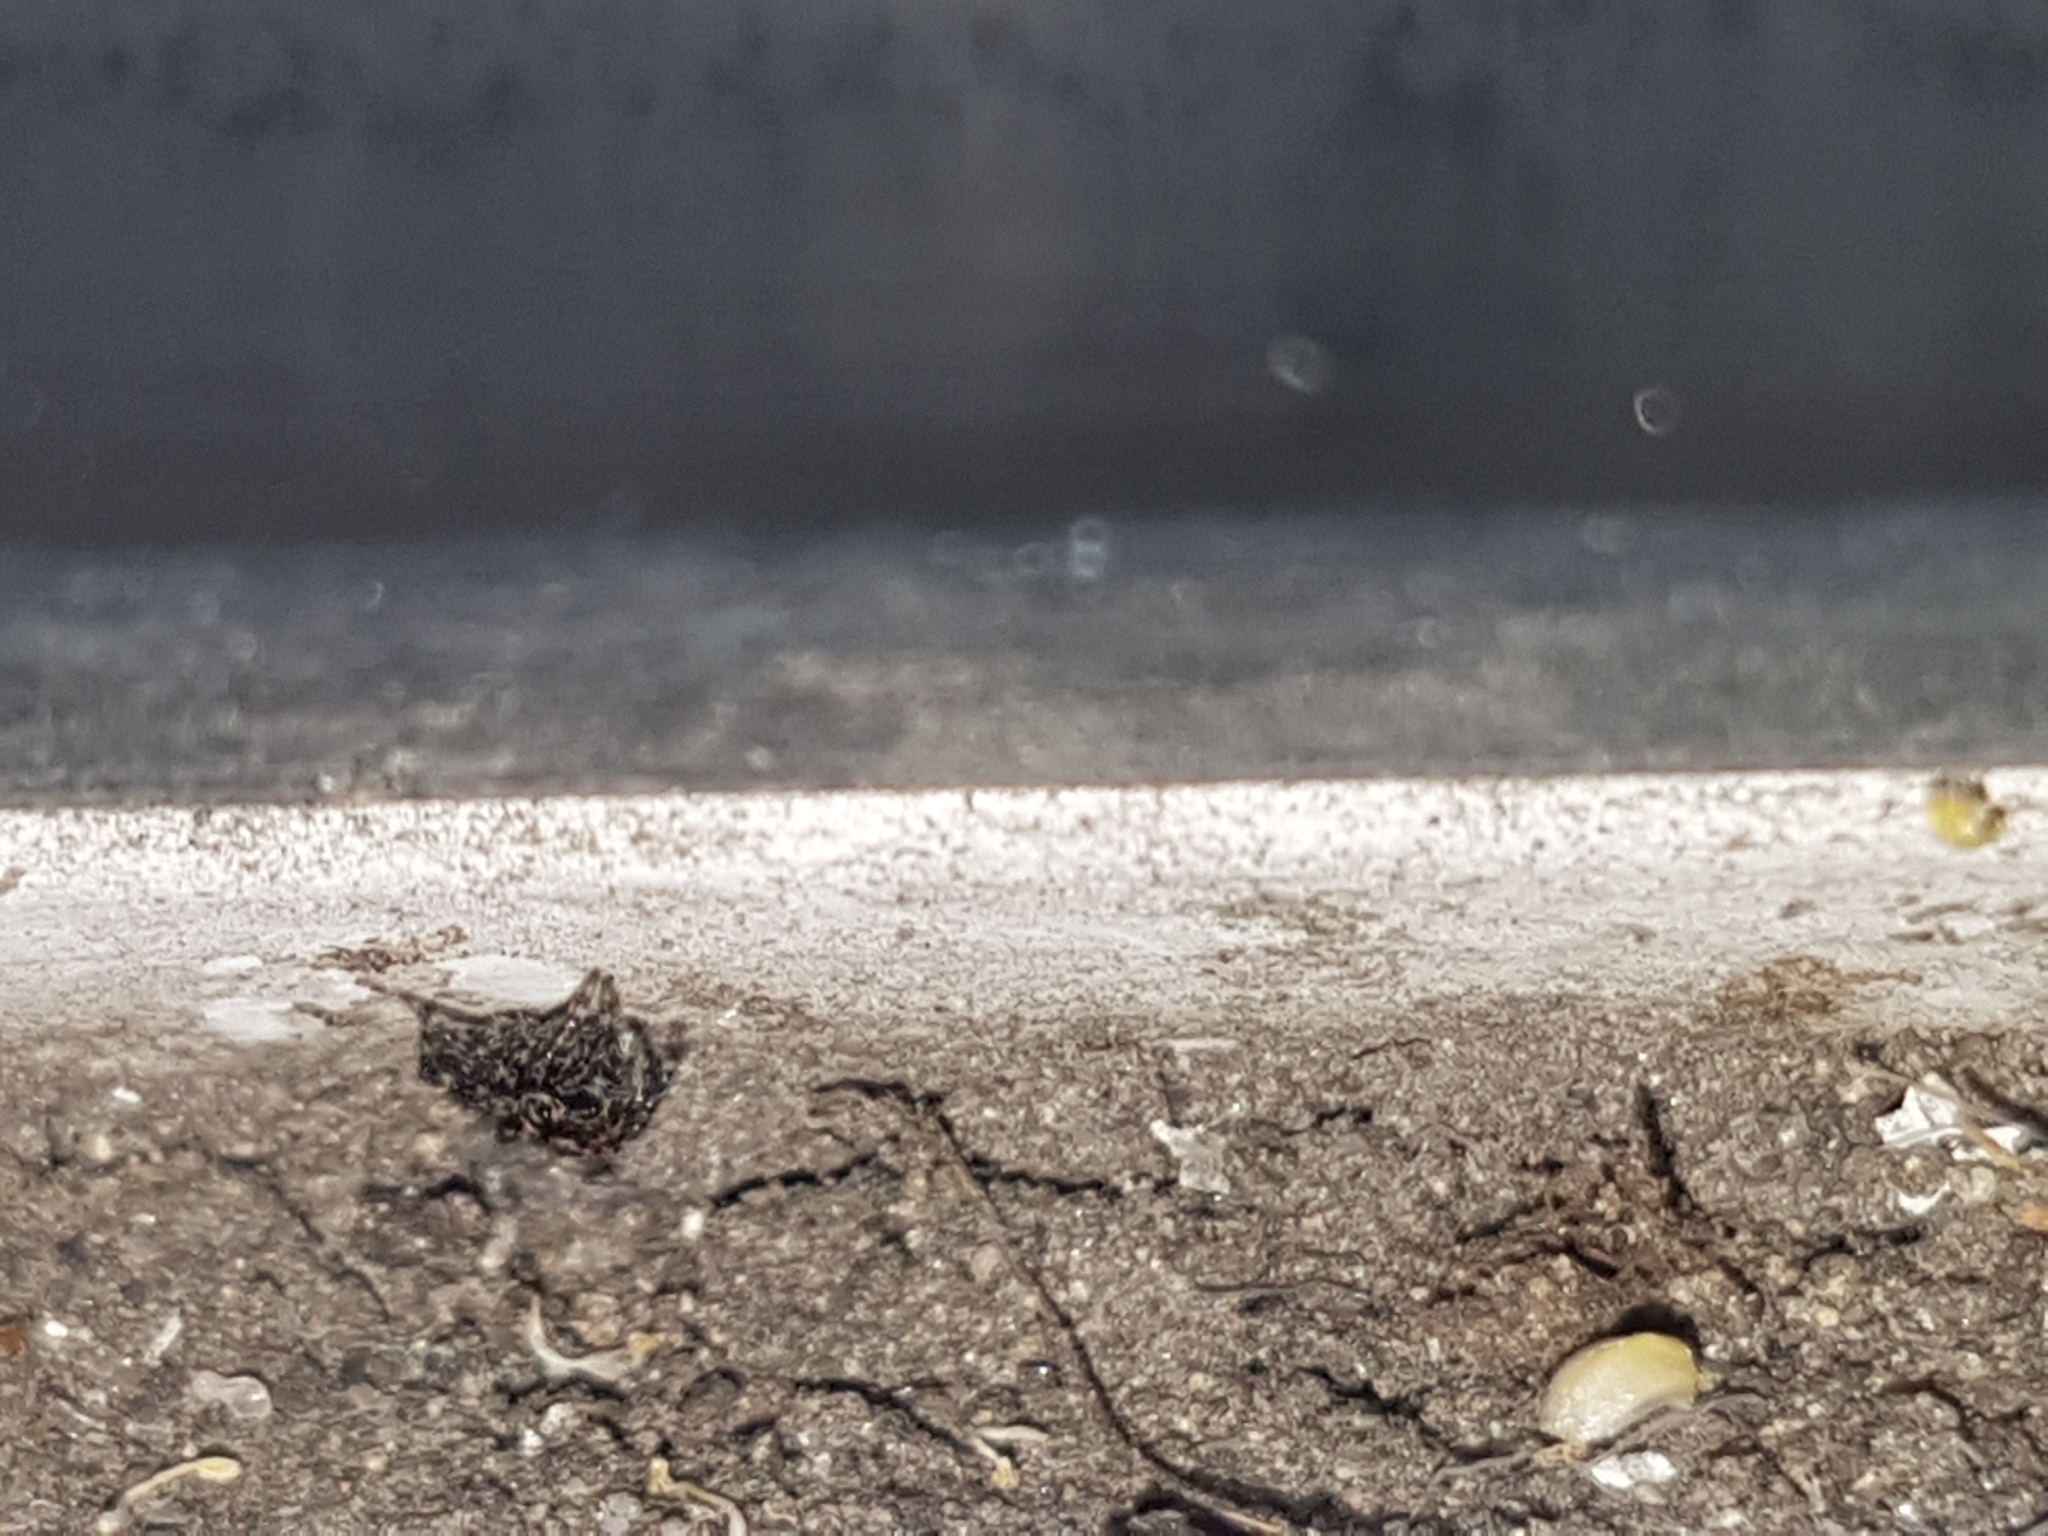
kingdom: Animalia
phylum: Arthropoda
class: Arachnida
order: Araneae
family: Salticidae
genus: Attulus
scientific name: Attulus pubescens
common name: Jumping spider
